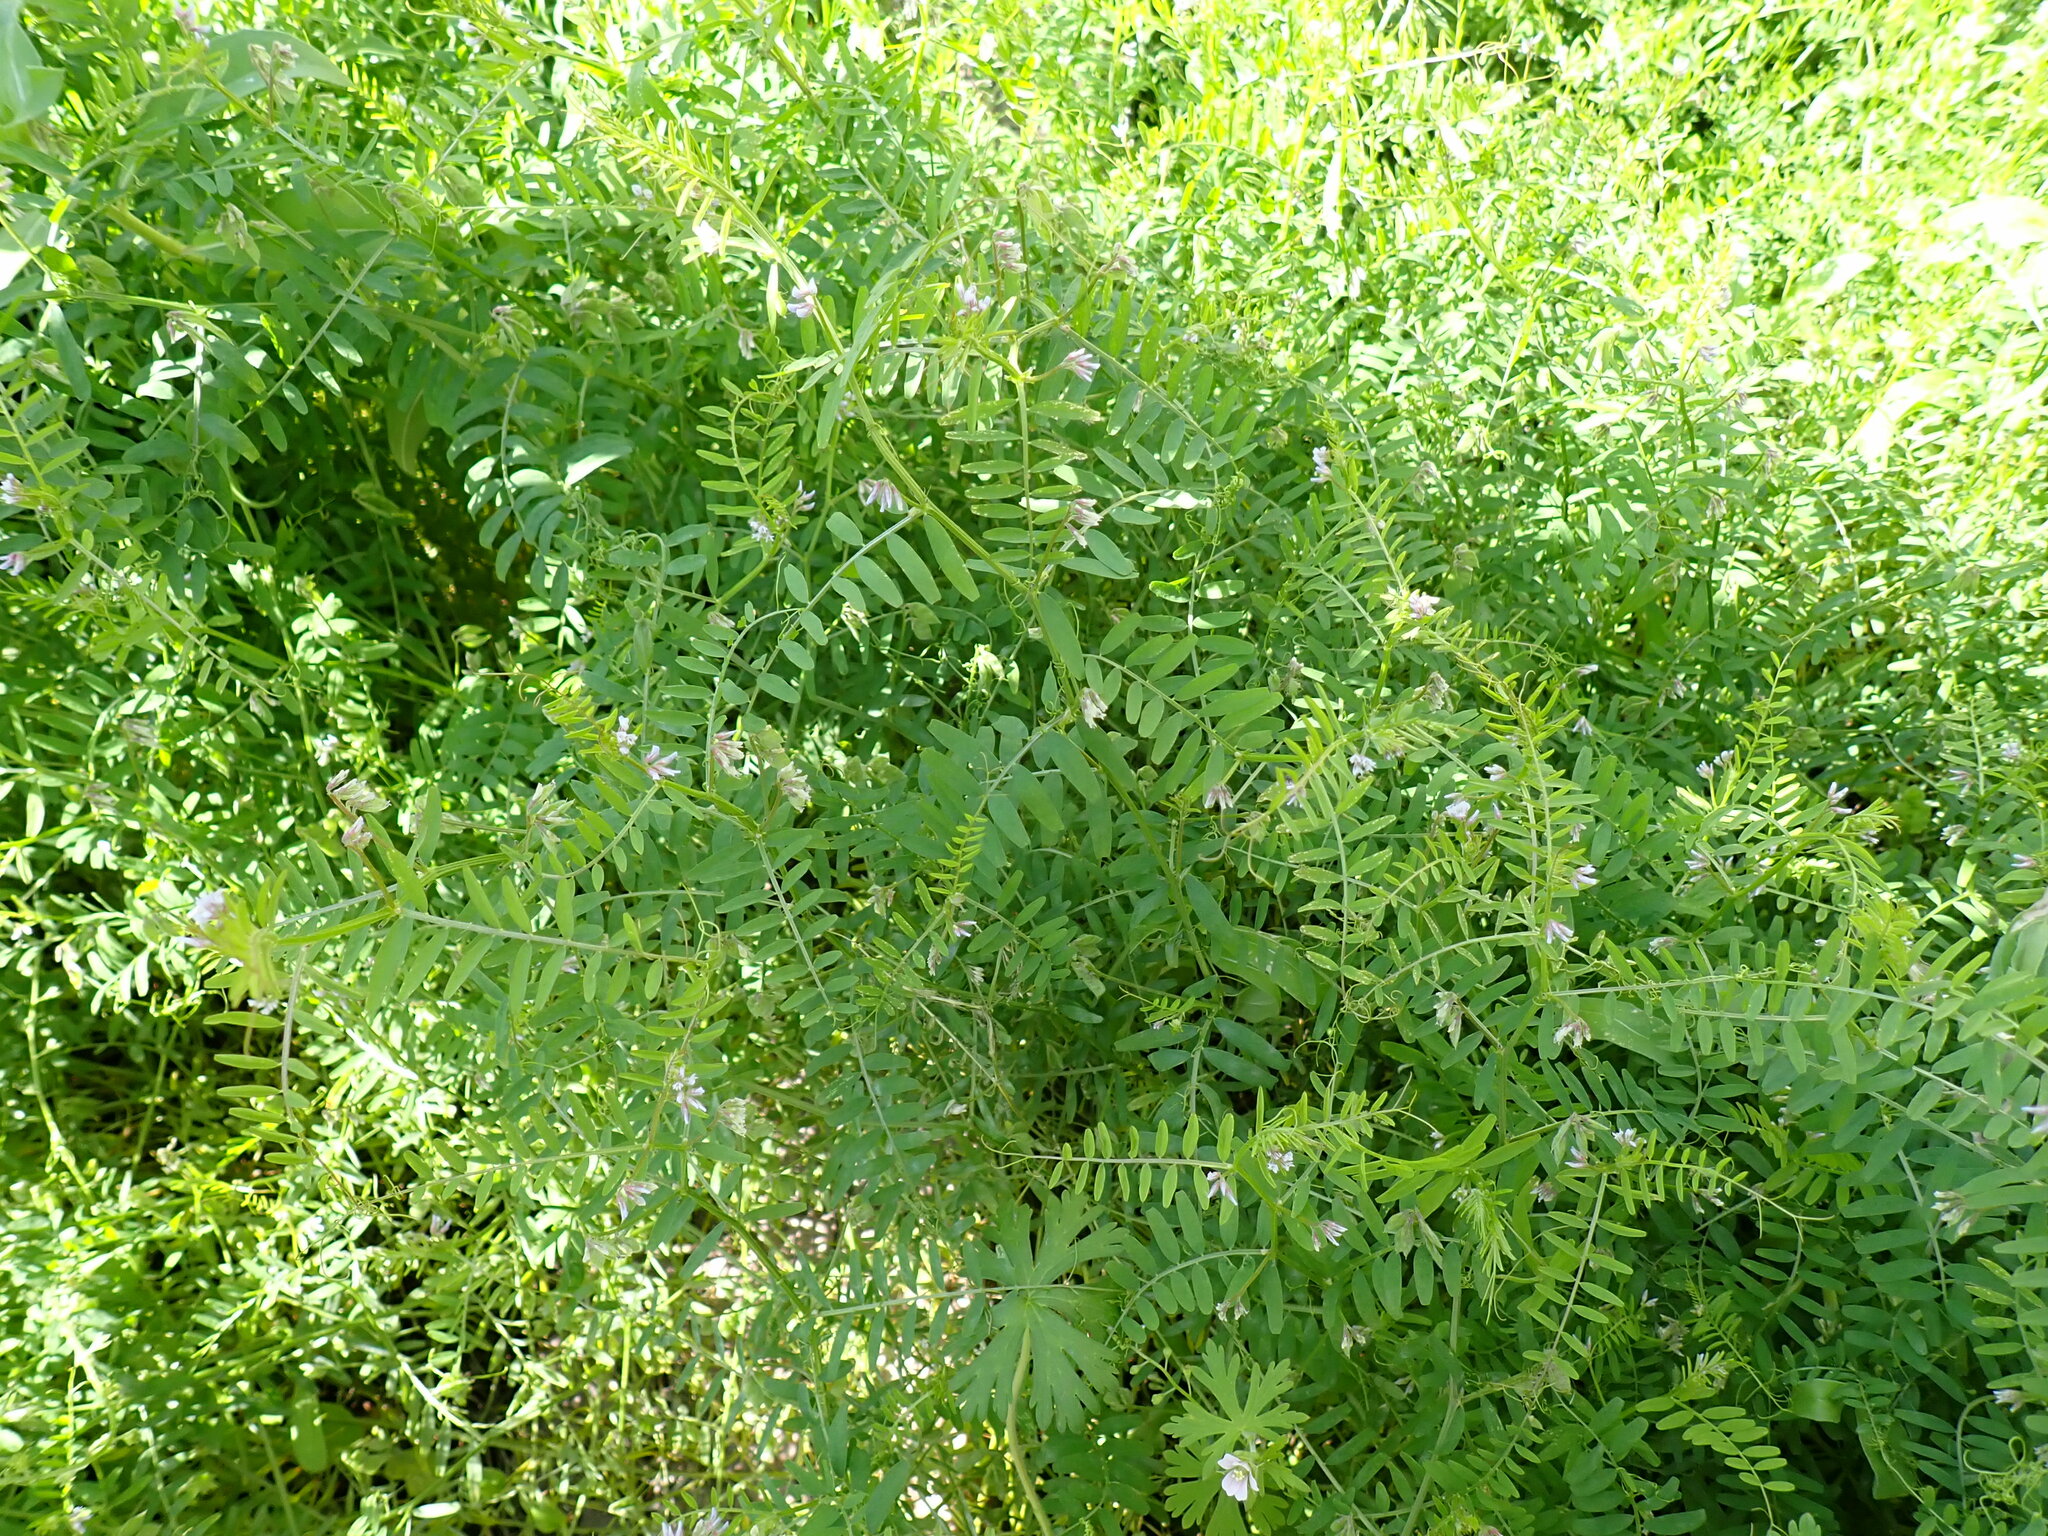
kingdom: Plantae
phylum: Tracheophyta
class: Magnoliopsida
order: Fabales
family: Fabaceae
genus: Vicia
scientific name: Vicia hirsuta
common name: Tiny vetch
